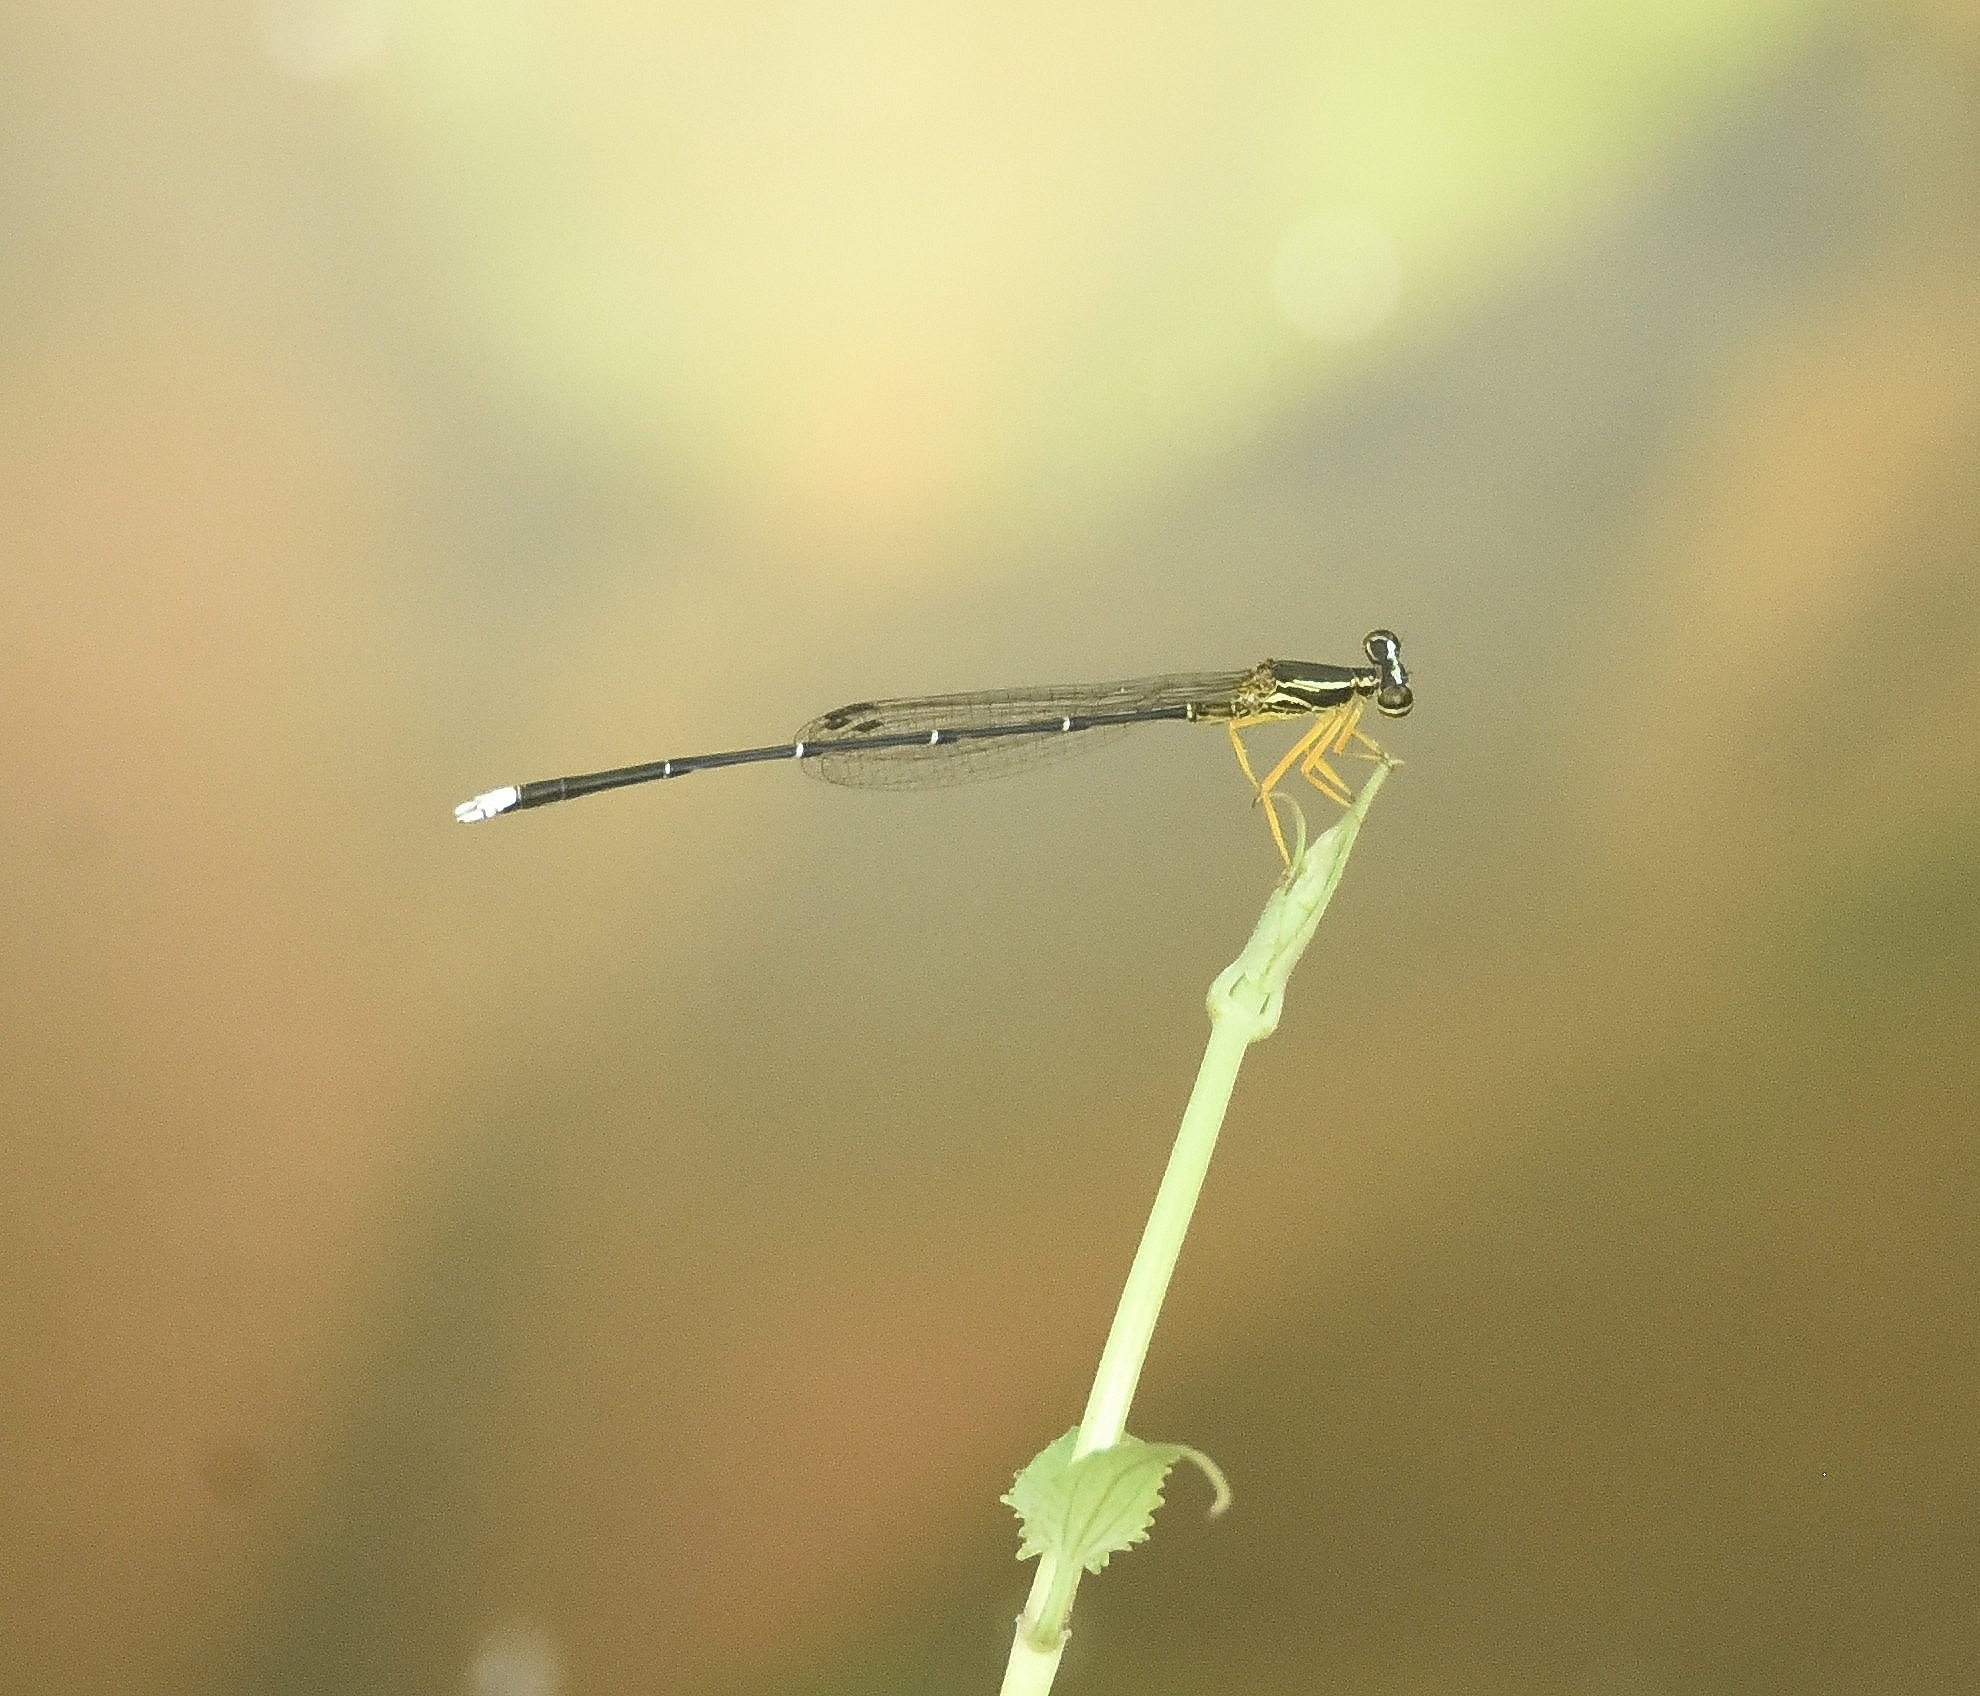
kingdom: Animalia
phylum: Arthropoda
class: Insecta
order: Odonata
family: Platycnemididae
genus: Copera
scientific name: Copera marginipes
